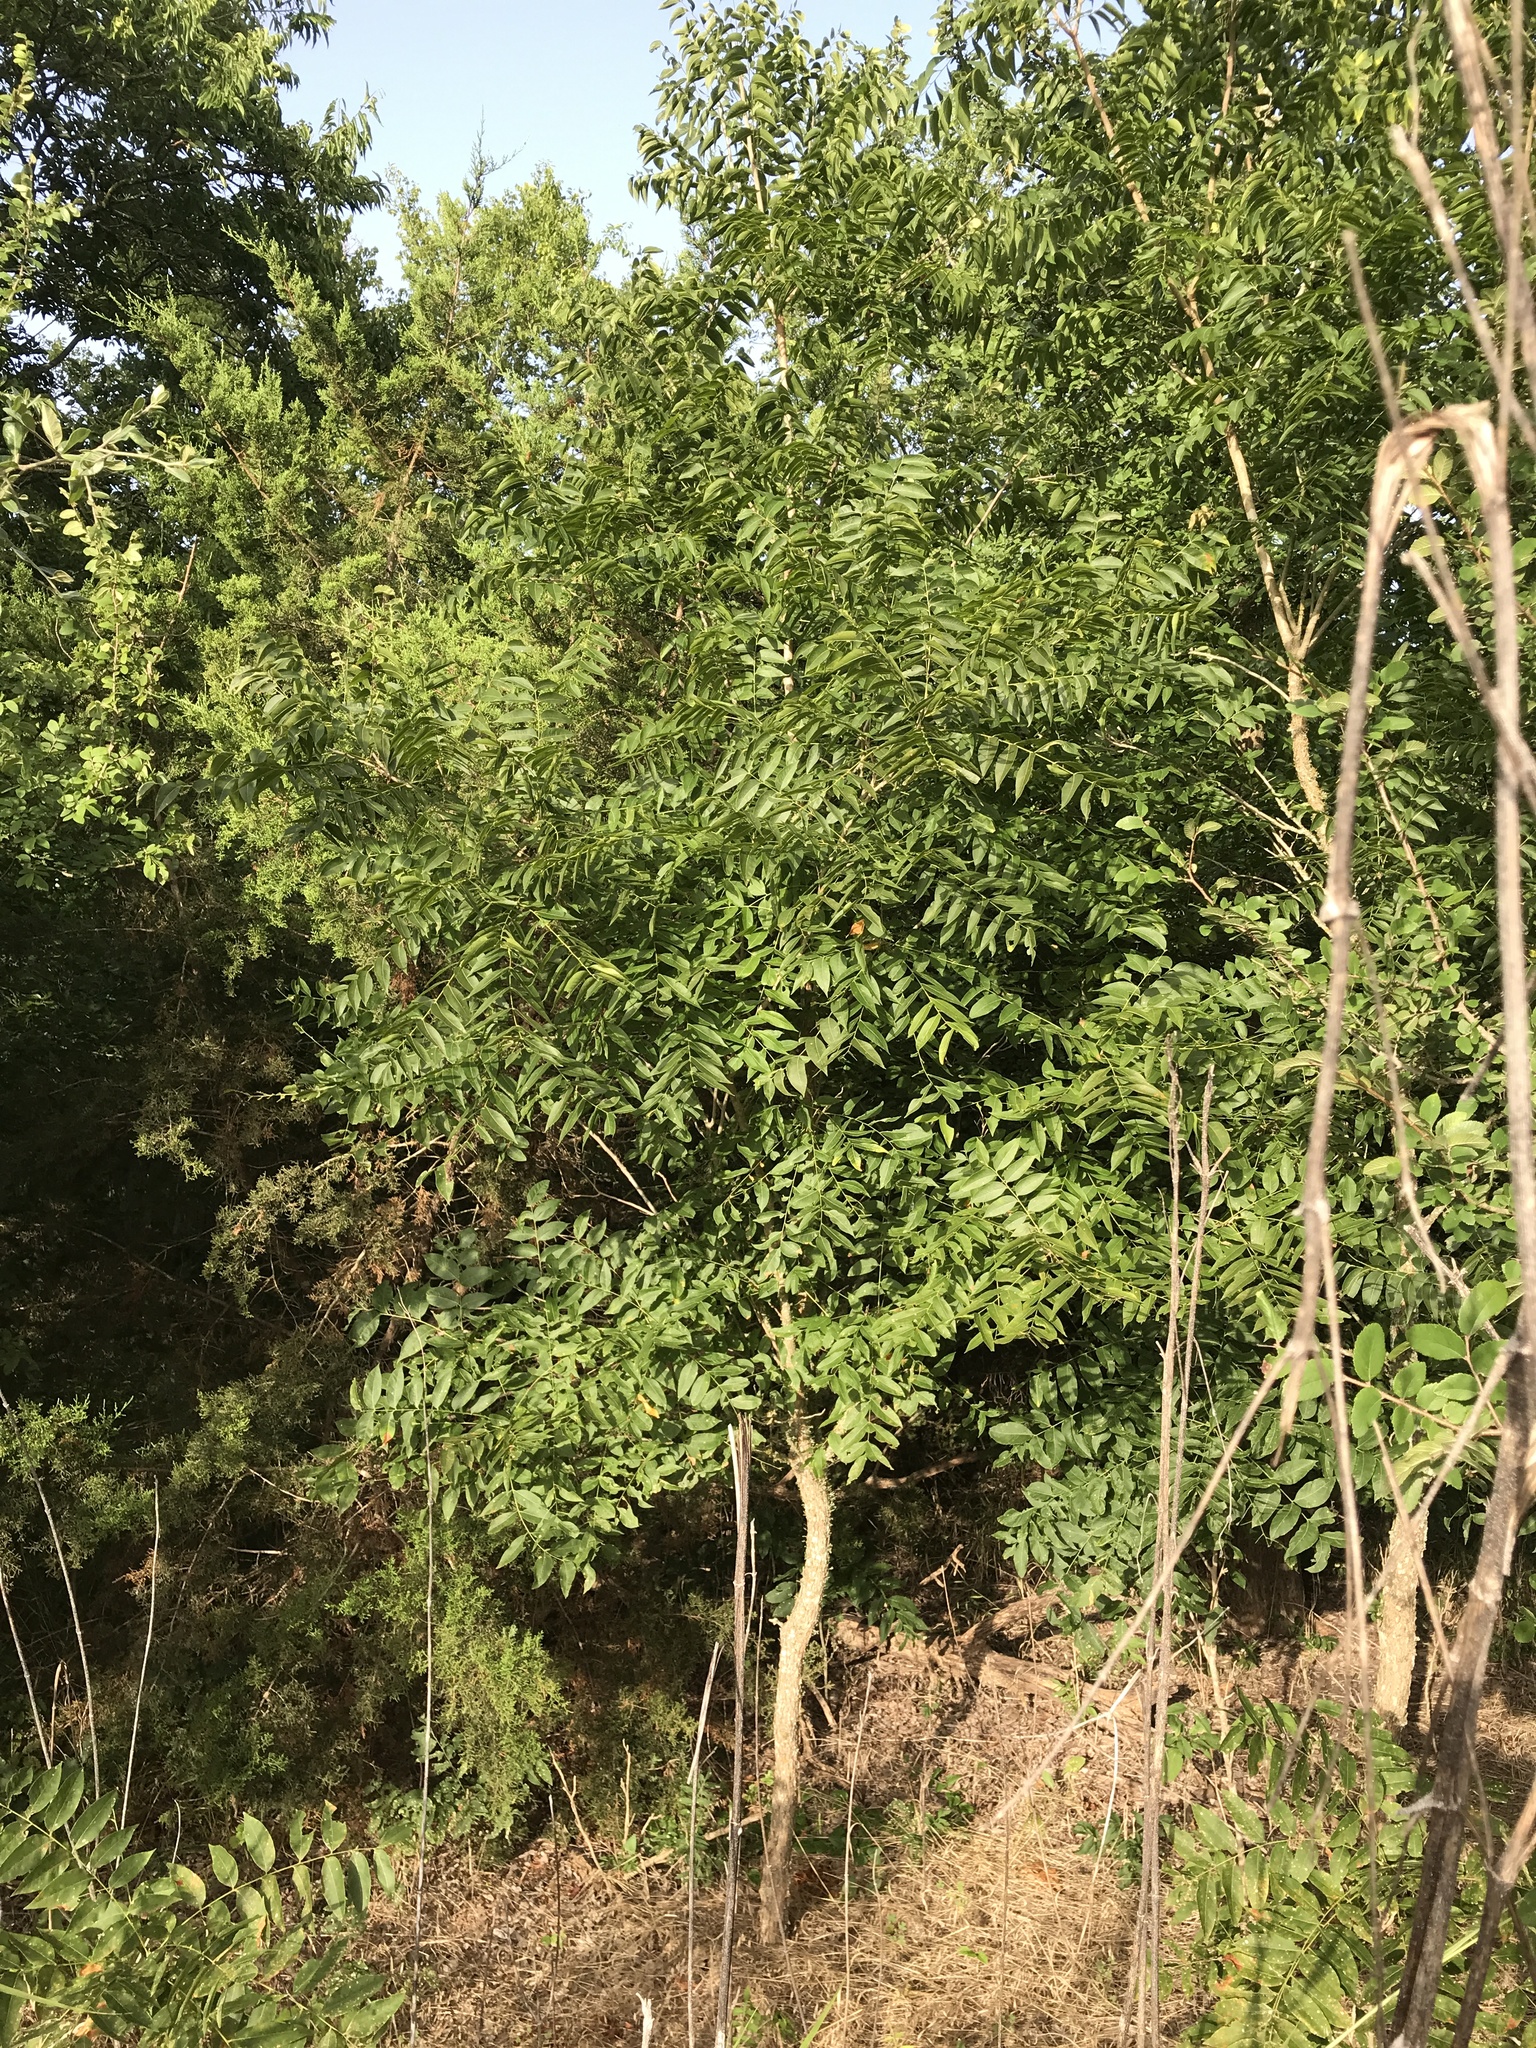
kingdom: Plantae
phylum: Tracheophyta
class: Magnoliopsida
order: Sapindales
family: Sapindaceae
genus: Sapindus
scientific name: Sapindus drummondii
